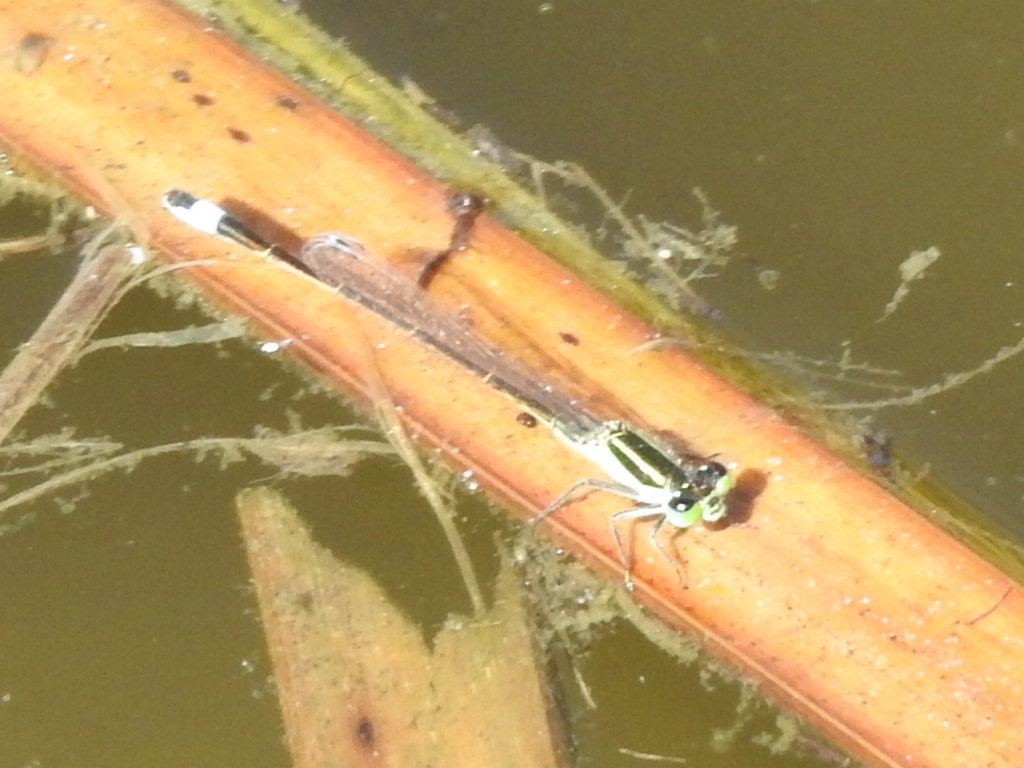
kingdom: Animalia
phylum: Arthropoda
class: Insecta
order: Odonata
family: Coenagrionidae
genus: Ischnura
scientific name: Ischnura ramburii
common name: Rambur's forktail
